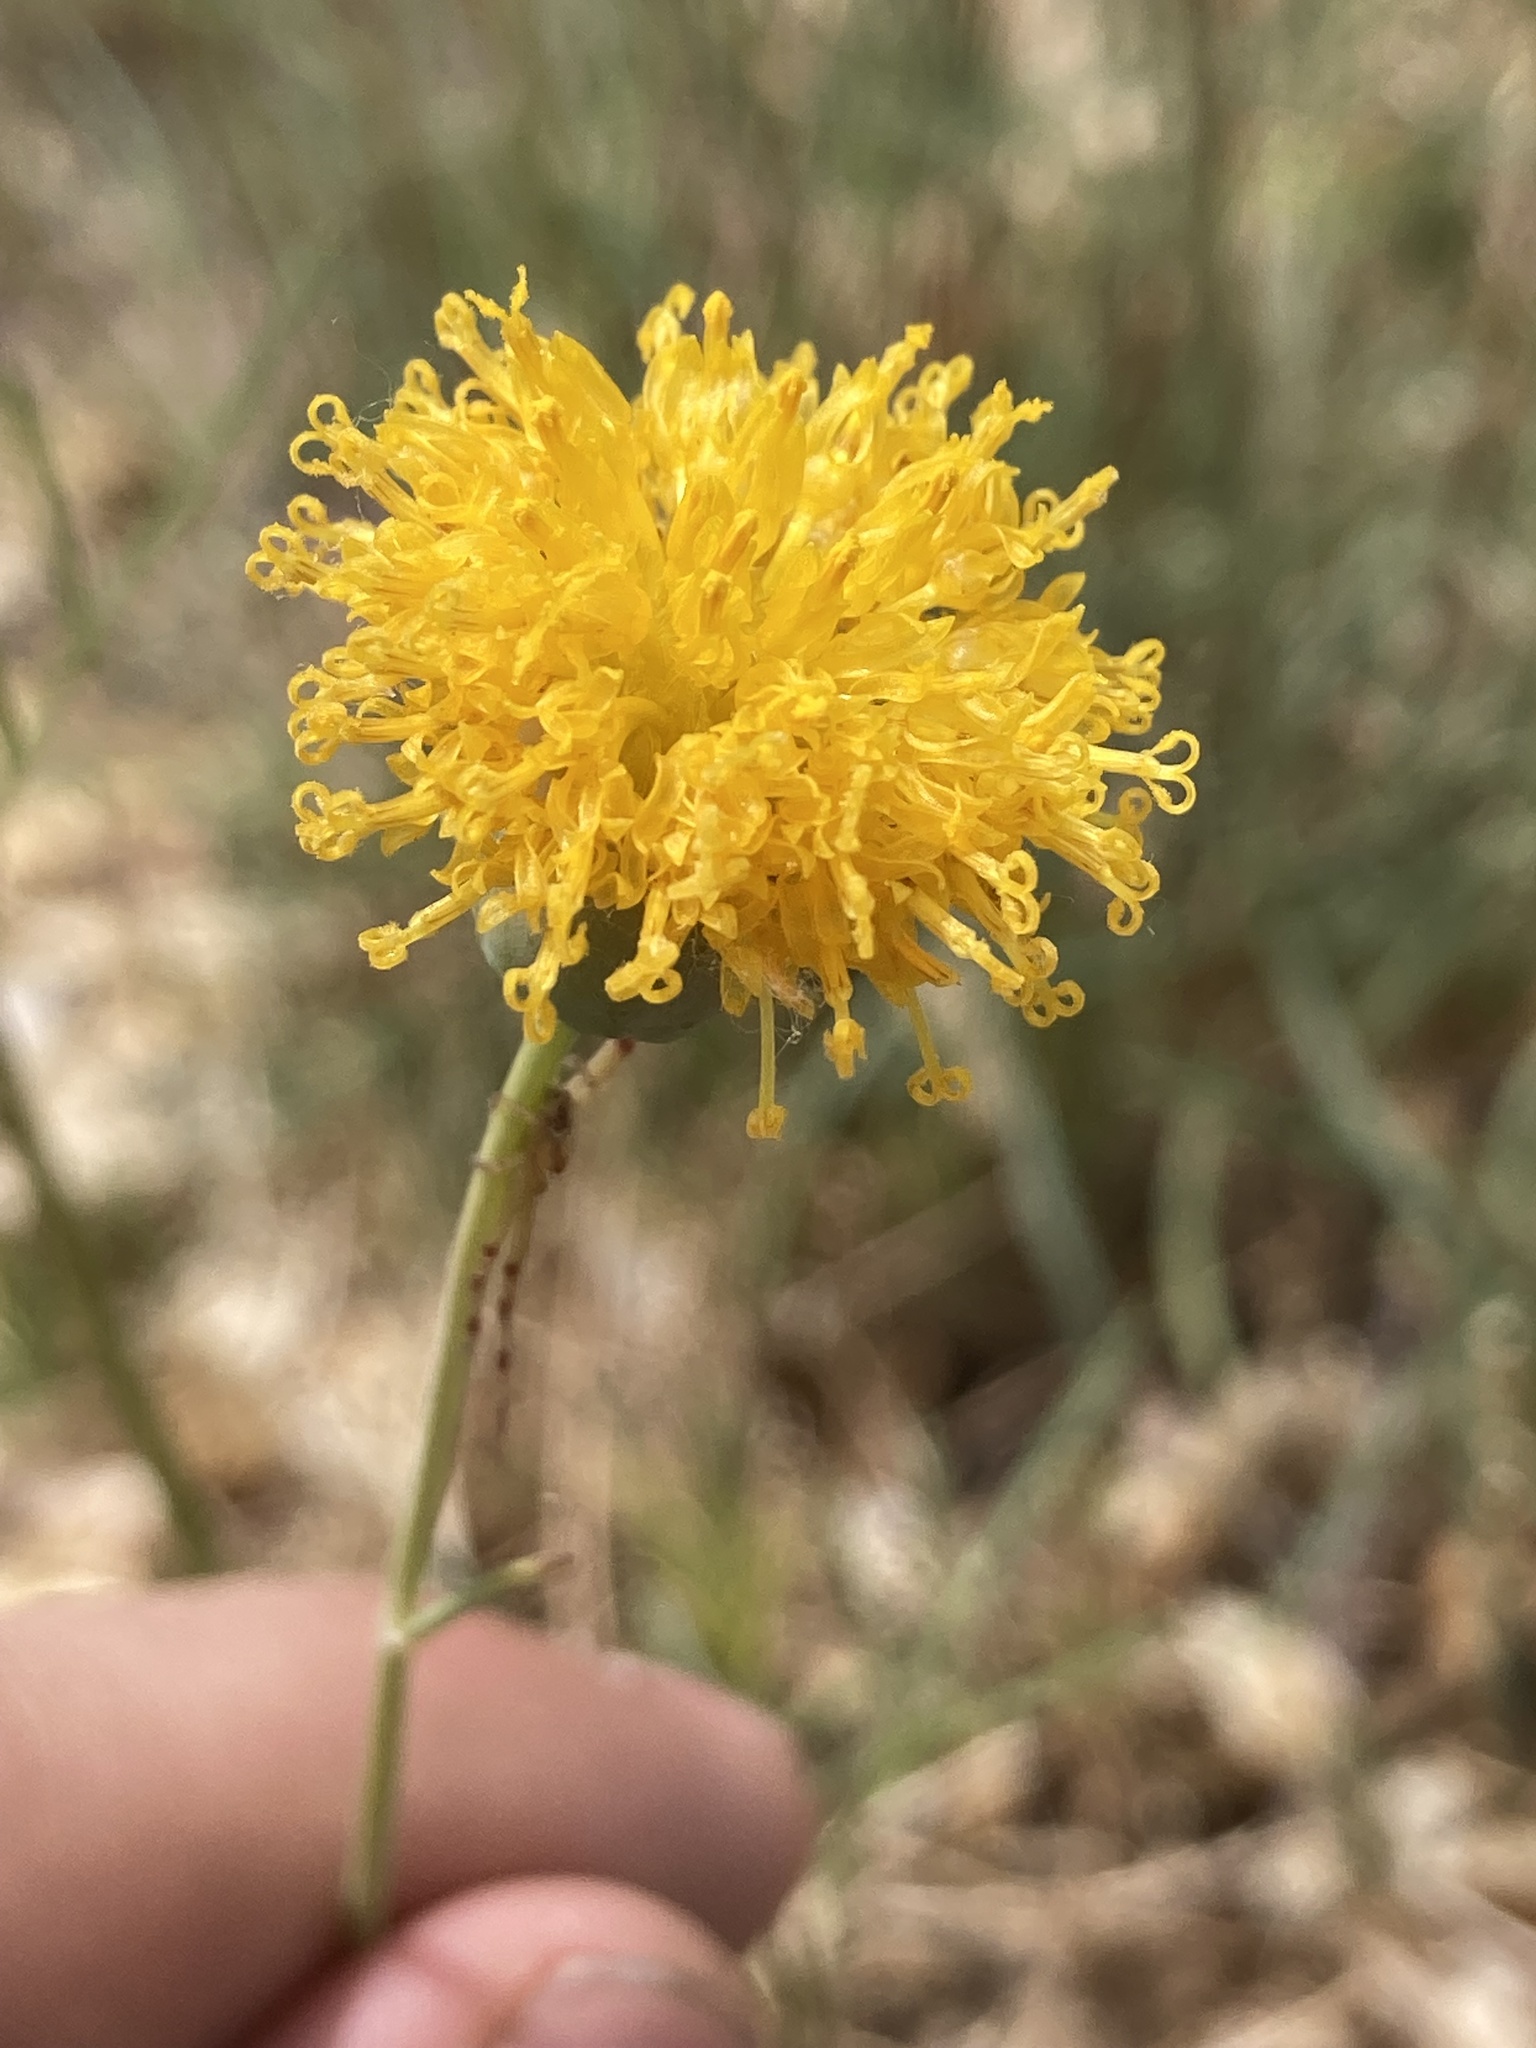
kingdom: Plantae
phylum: Tracheophyta
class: Magnoliopsida
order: Asterales
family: Asteraceae
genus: Thelesperma
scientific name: Thelesperma megapotamicum
